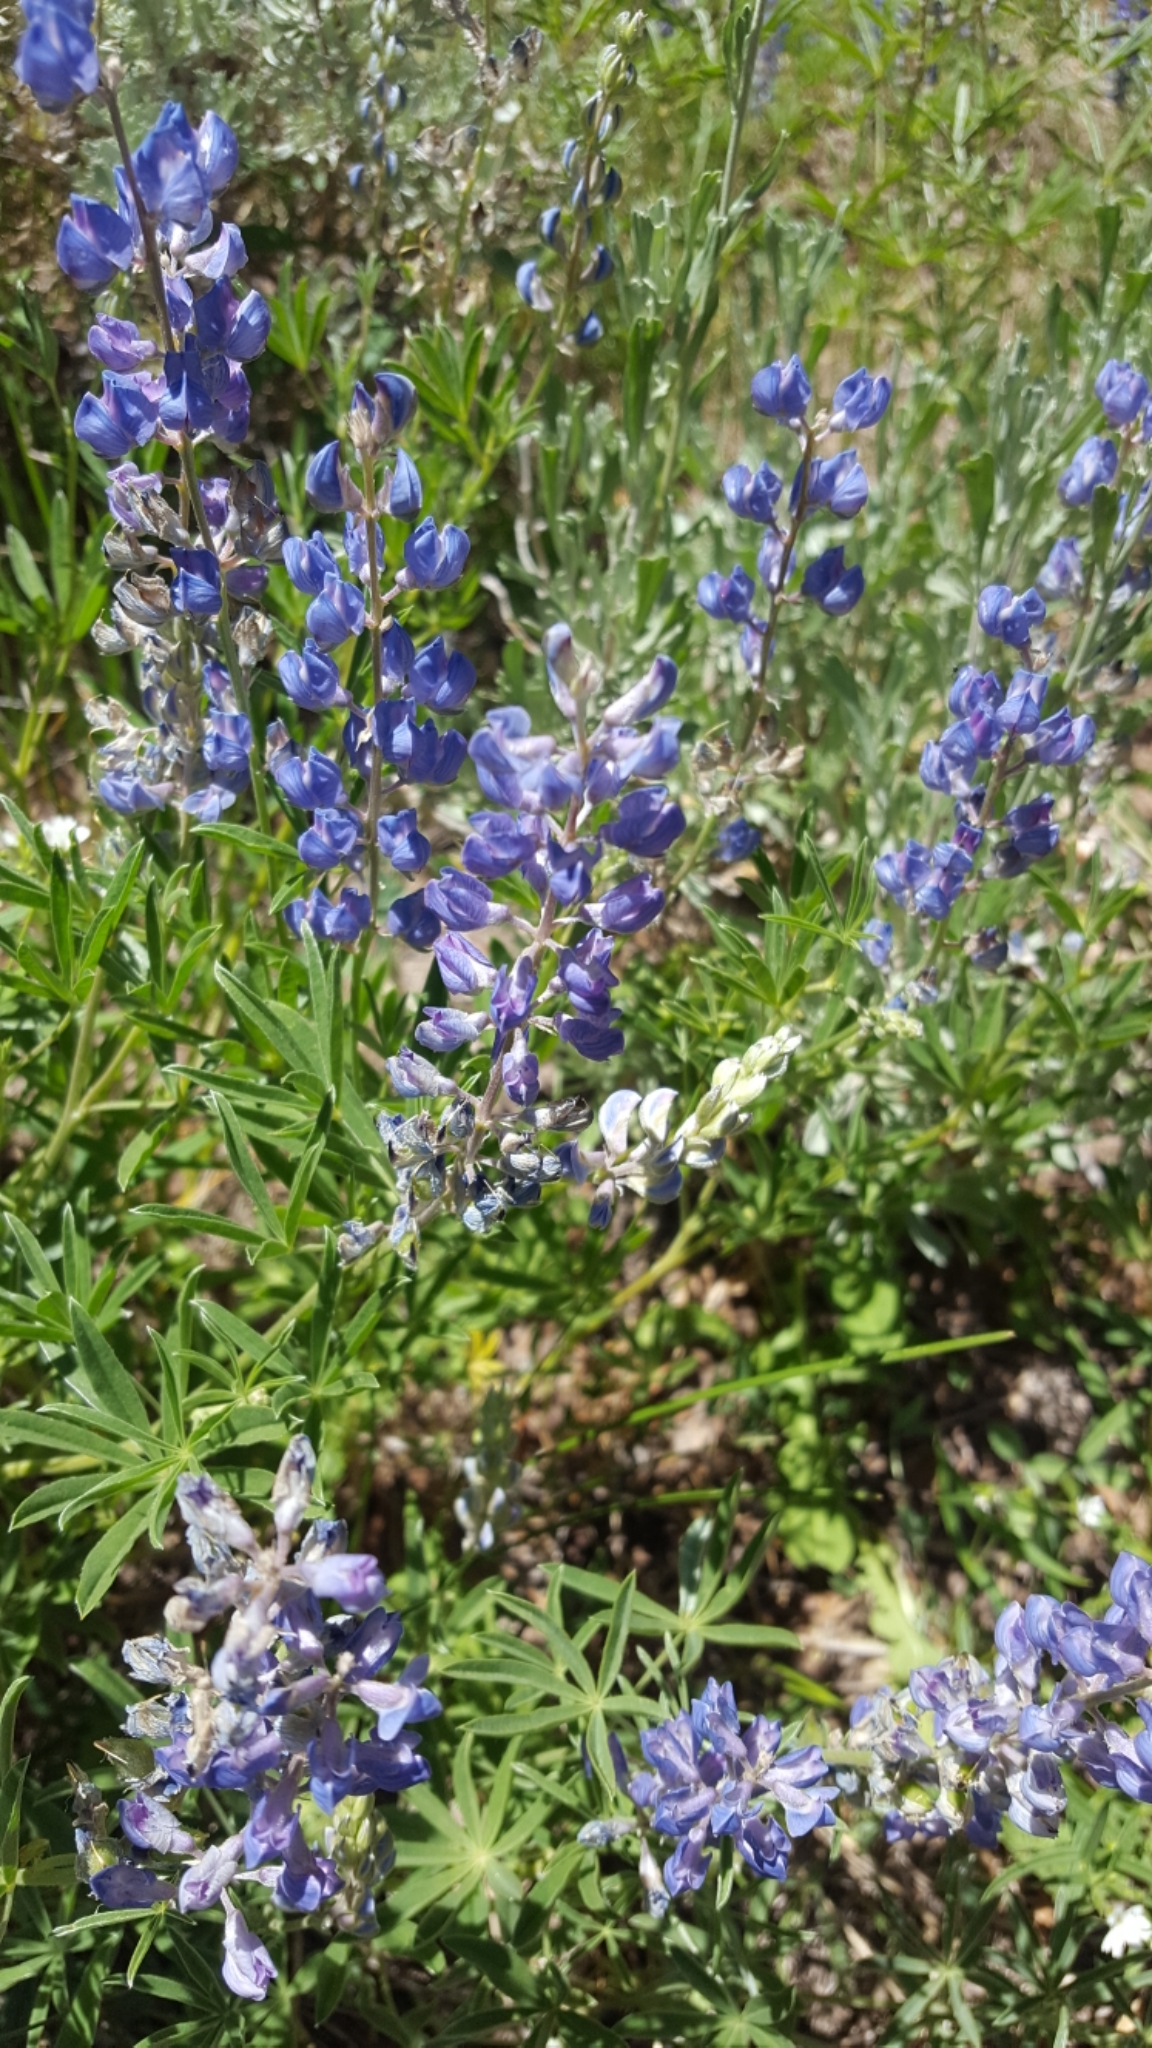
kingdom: Plantae
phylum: Tracheophyta
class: Magnoliopsida
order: Fabales
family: Fabaceae
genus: Lupinus
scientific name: Lupinus argenteus
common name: Silvery lupine
